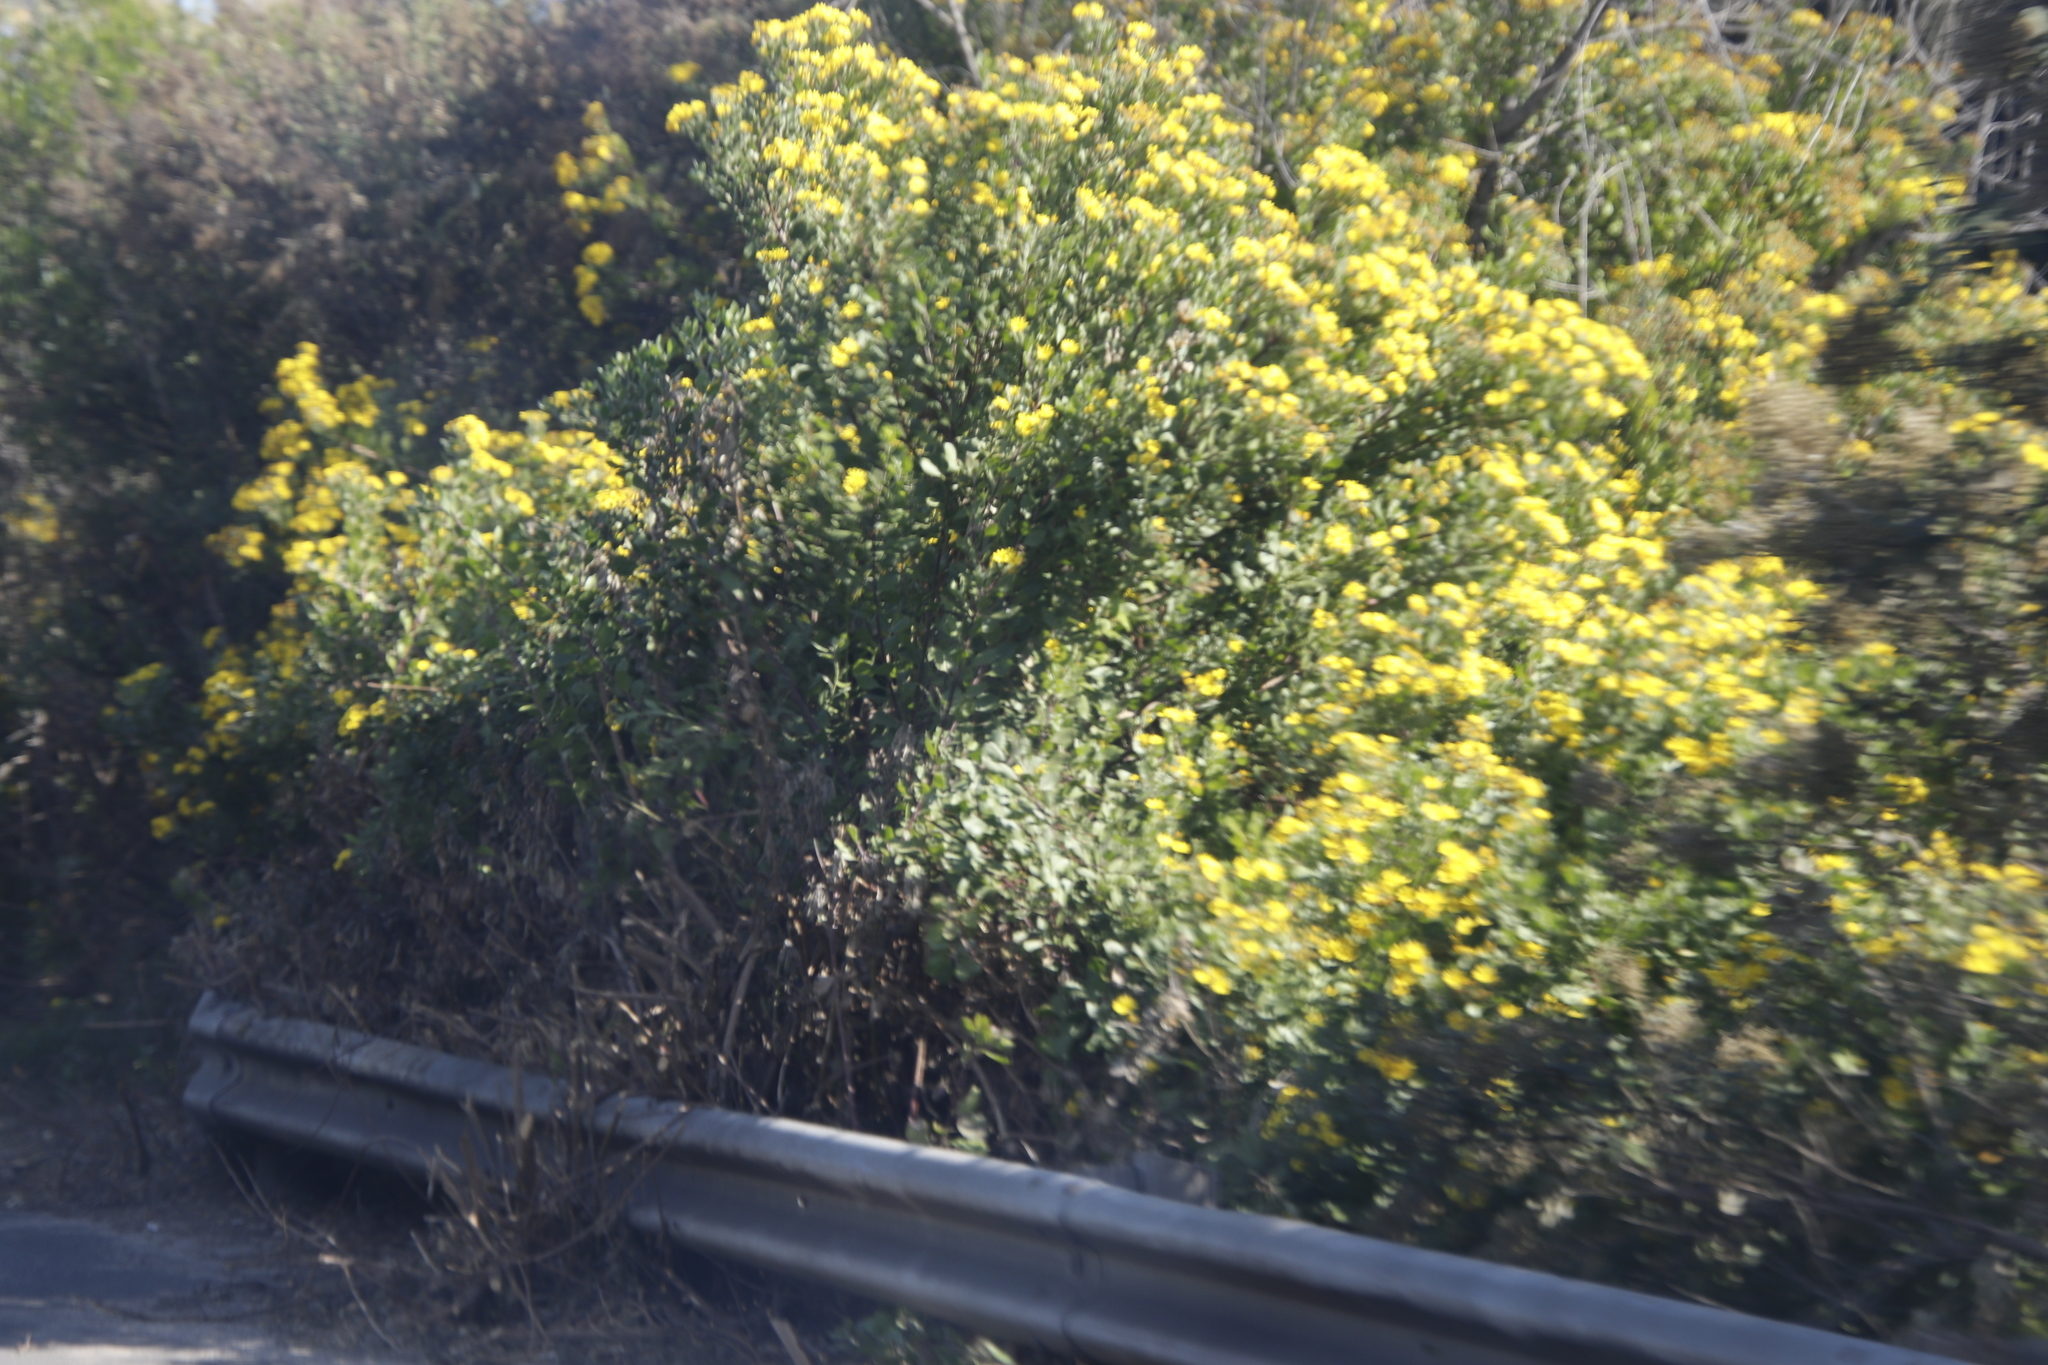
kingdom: Plantae
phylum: Tracheophyta
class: Magnoliopsida
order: Asterales
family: Asteraceae
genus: Osteospermum
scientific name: Osteospermum moniliferum
